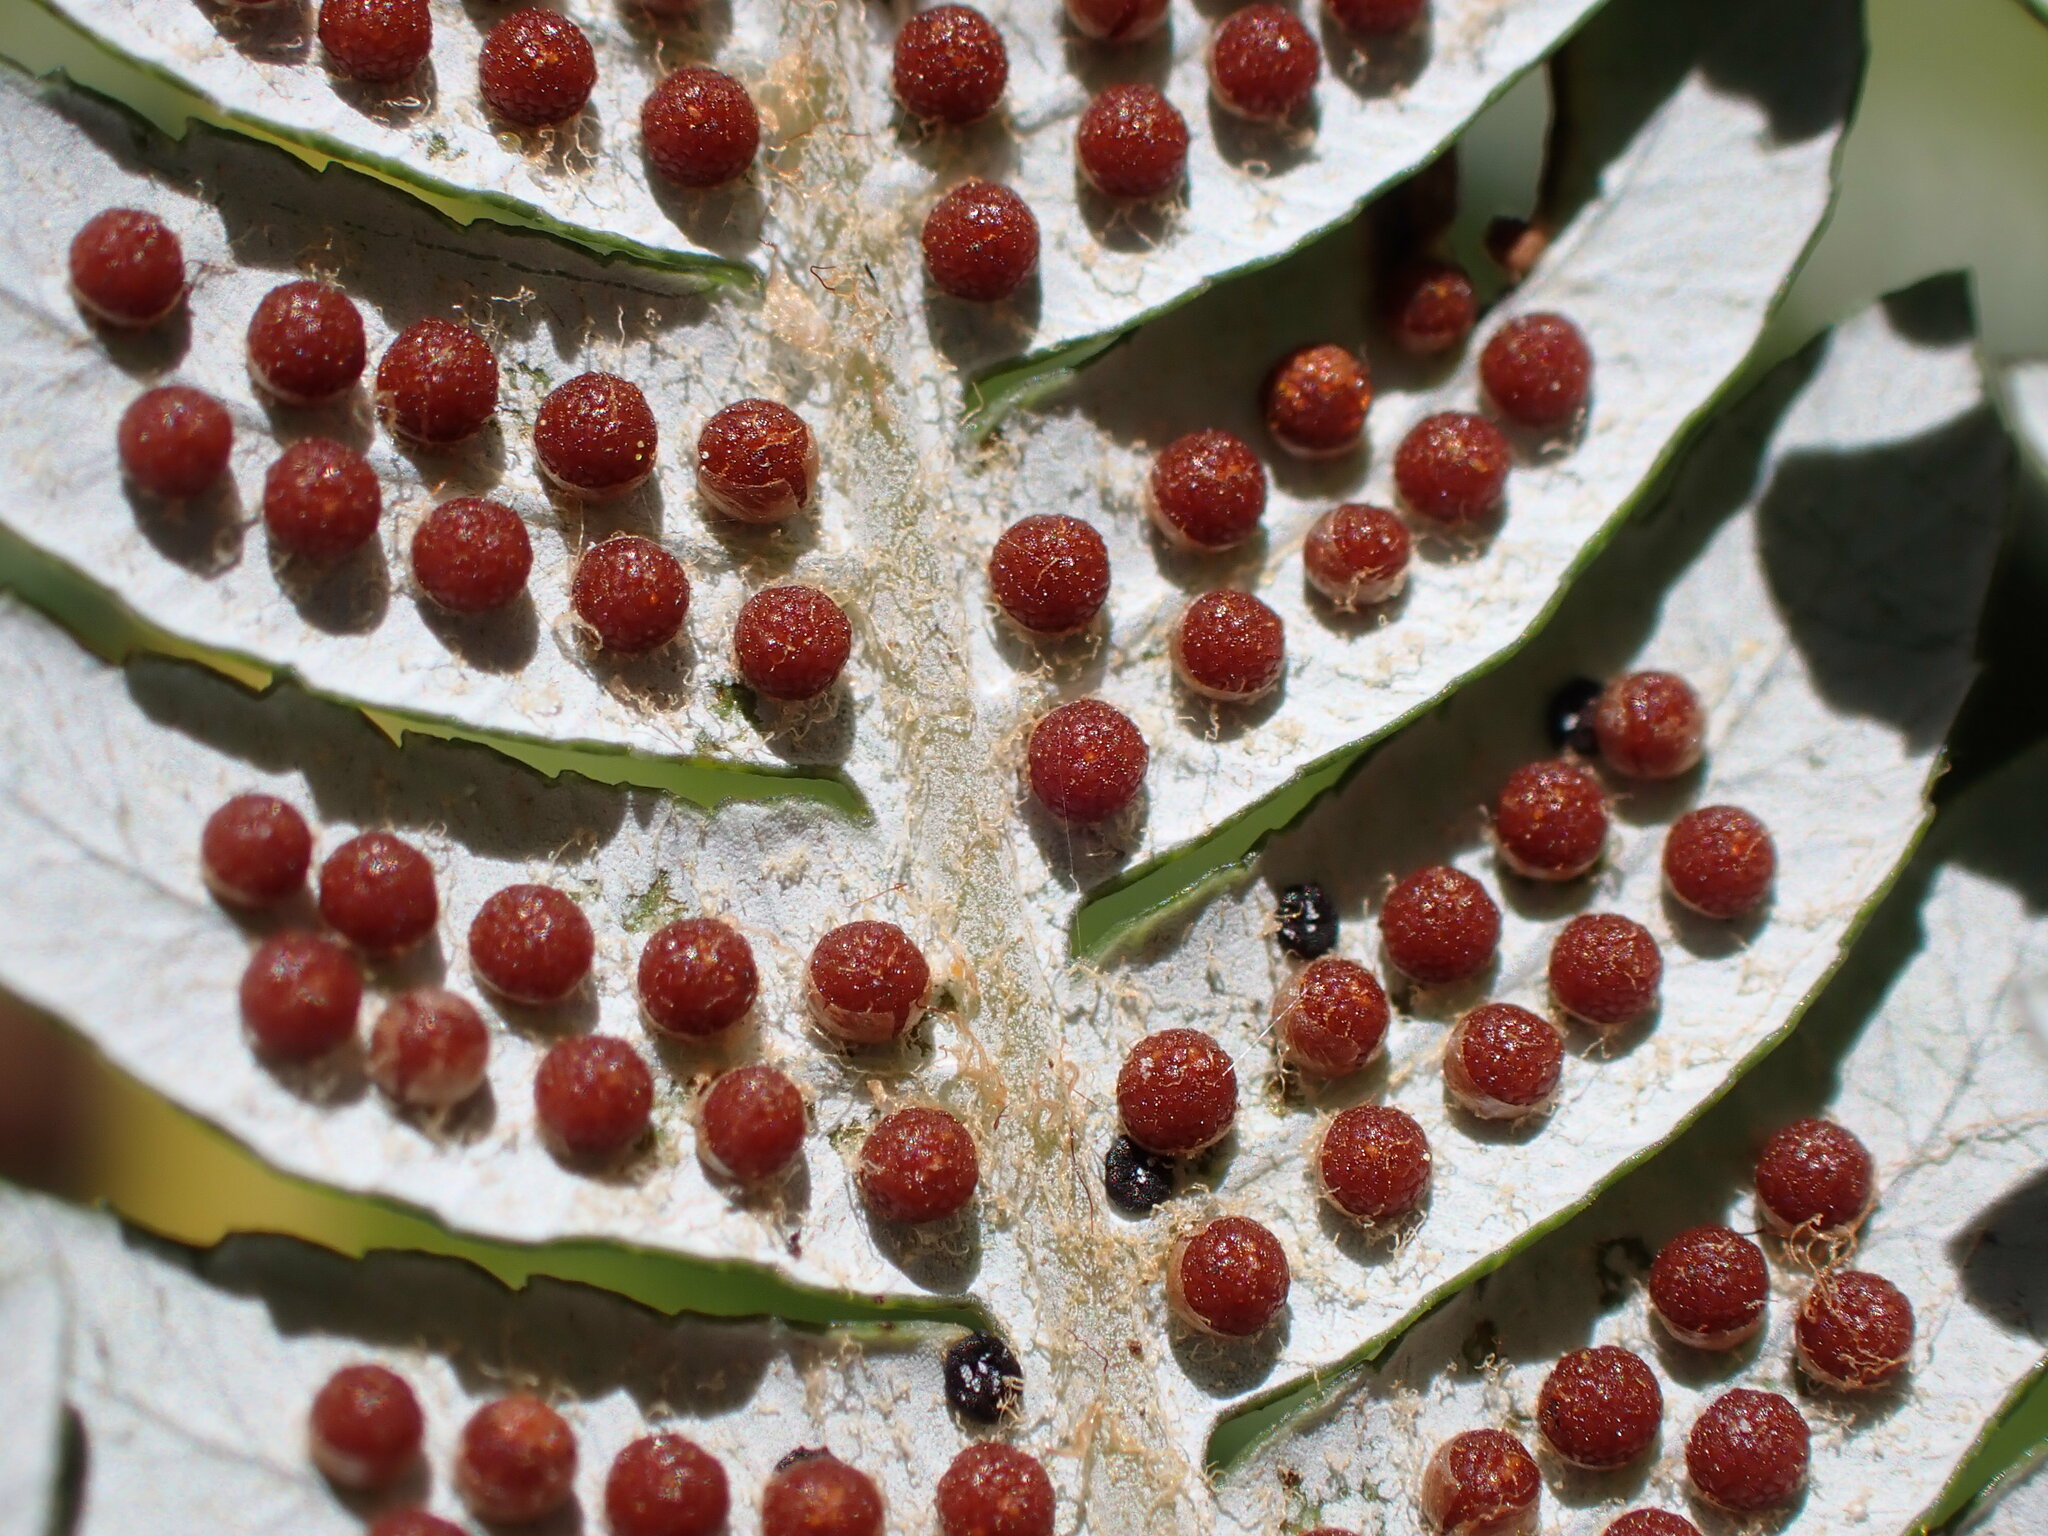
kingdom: Plantae
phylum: Tracheophyta
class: Polypodiopsida
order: Cyatheales
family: Cyatheaceae
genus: Alsophila
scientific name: Alsophila dealbata
